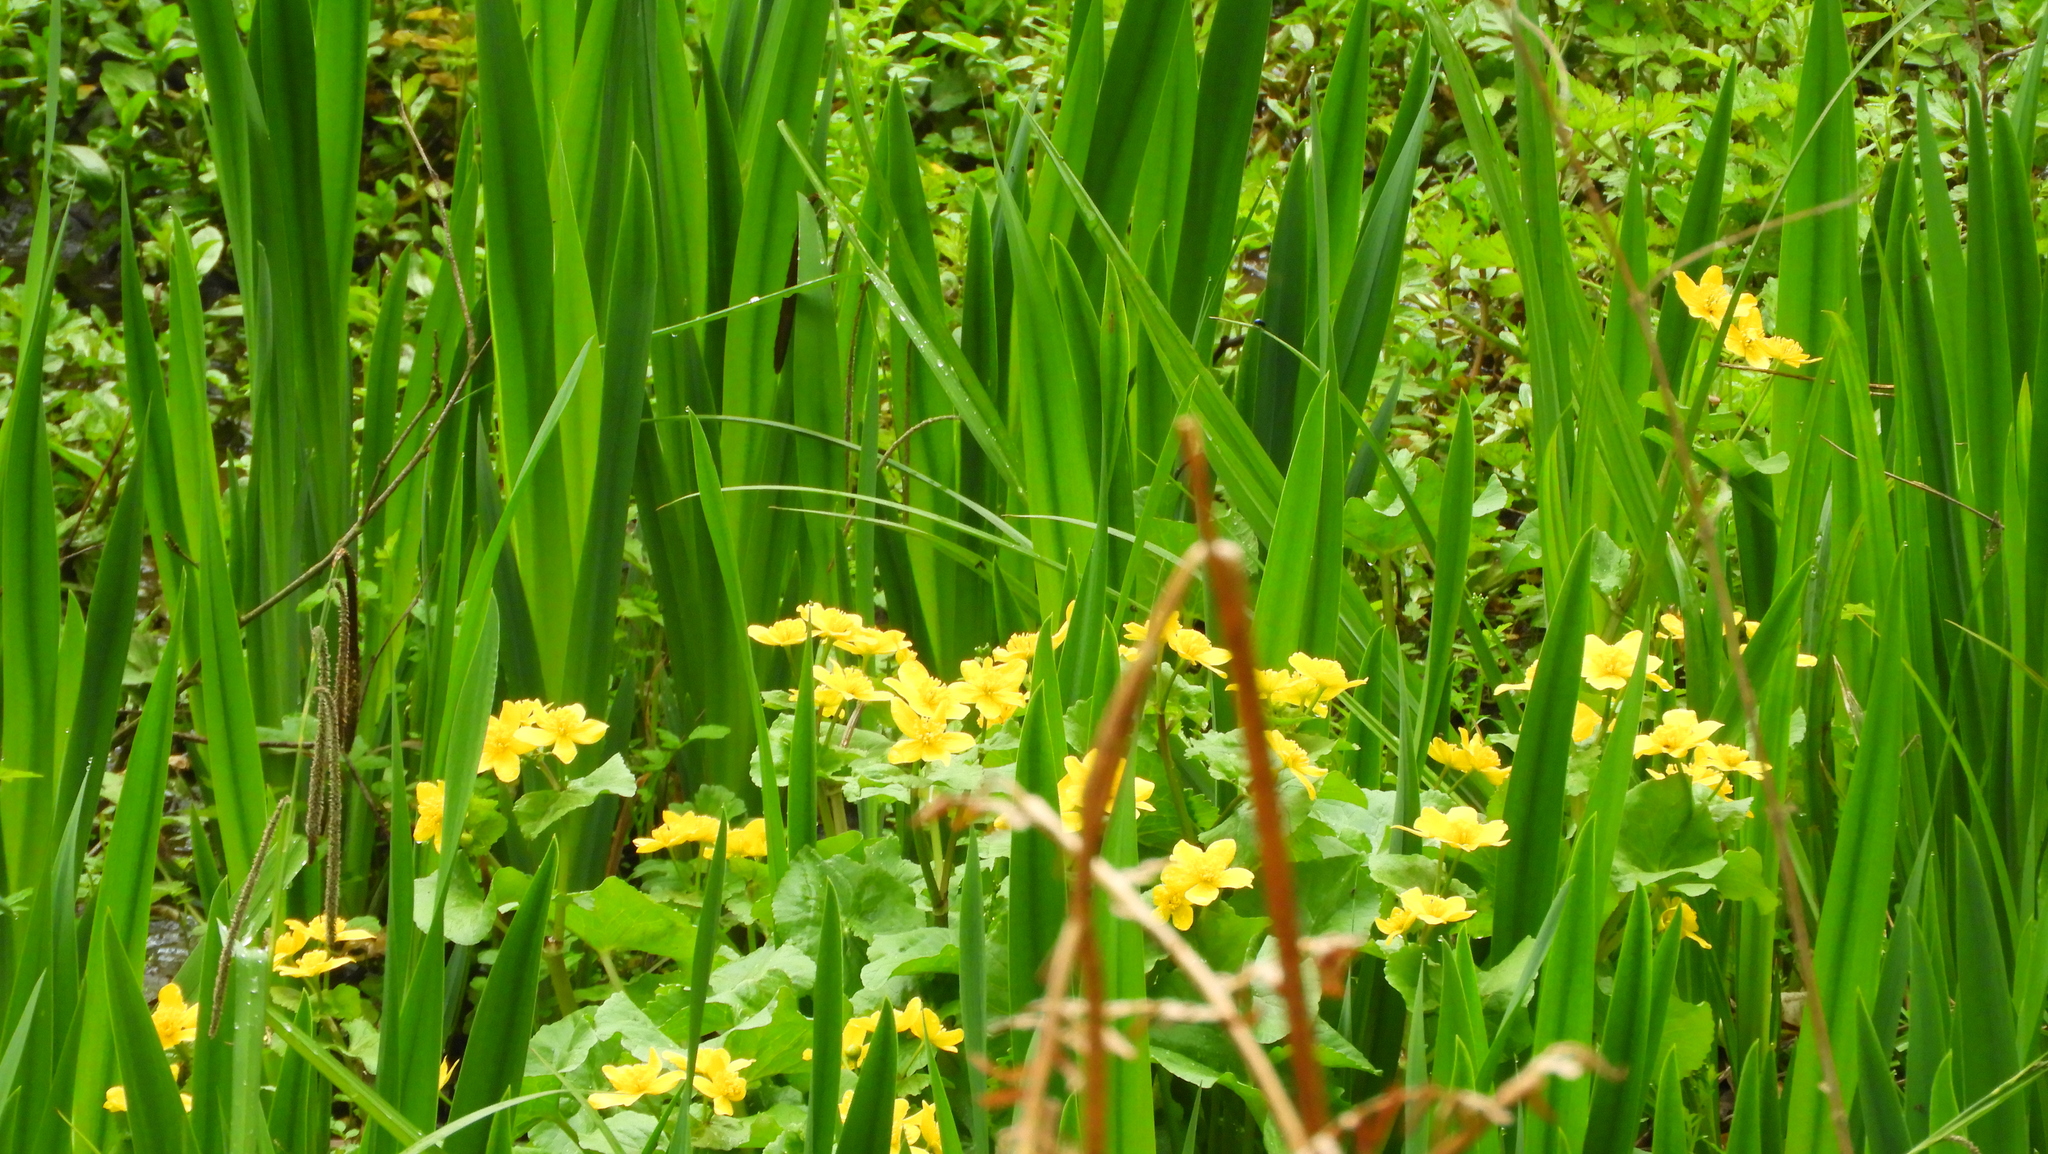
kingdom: Plantae
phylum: Tracheophyta
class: Magnoliopsida
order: Ranunculales
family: Ranunculaceae
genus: Caltha
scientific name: Caltha palustris
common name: Marsh marigold
